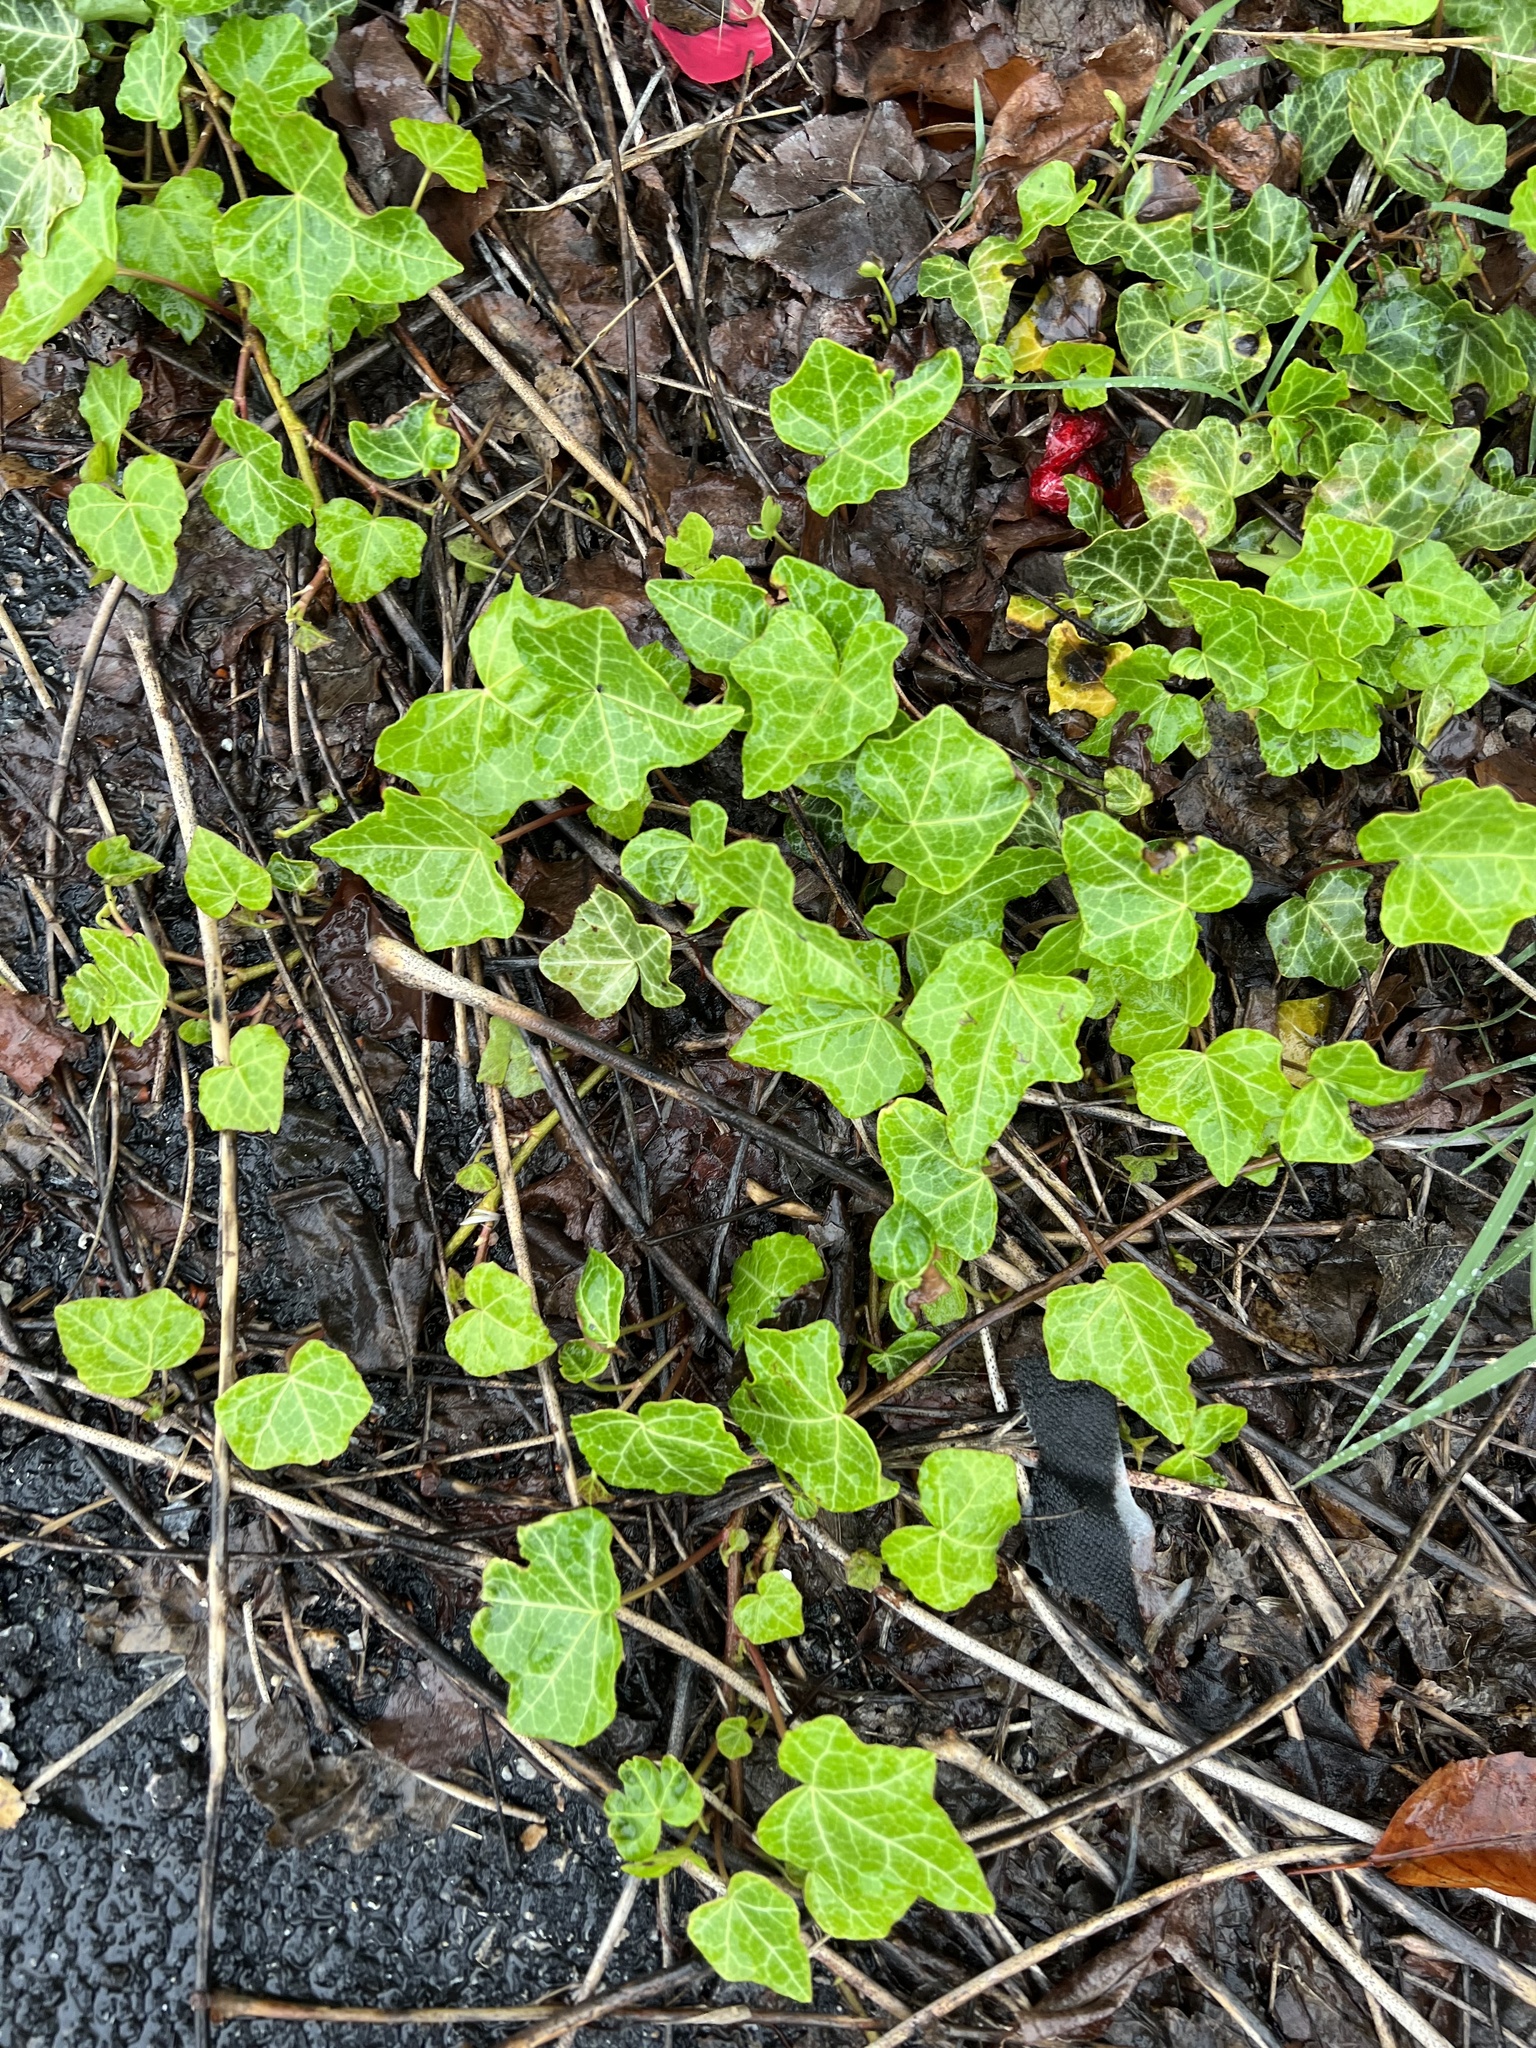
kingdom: Plantae
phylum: Tracheophyta
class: Magnoliopsida
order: Apiales
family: Araliaceae
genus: Hedera
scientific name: Hedera helix
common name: Ivy
